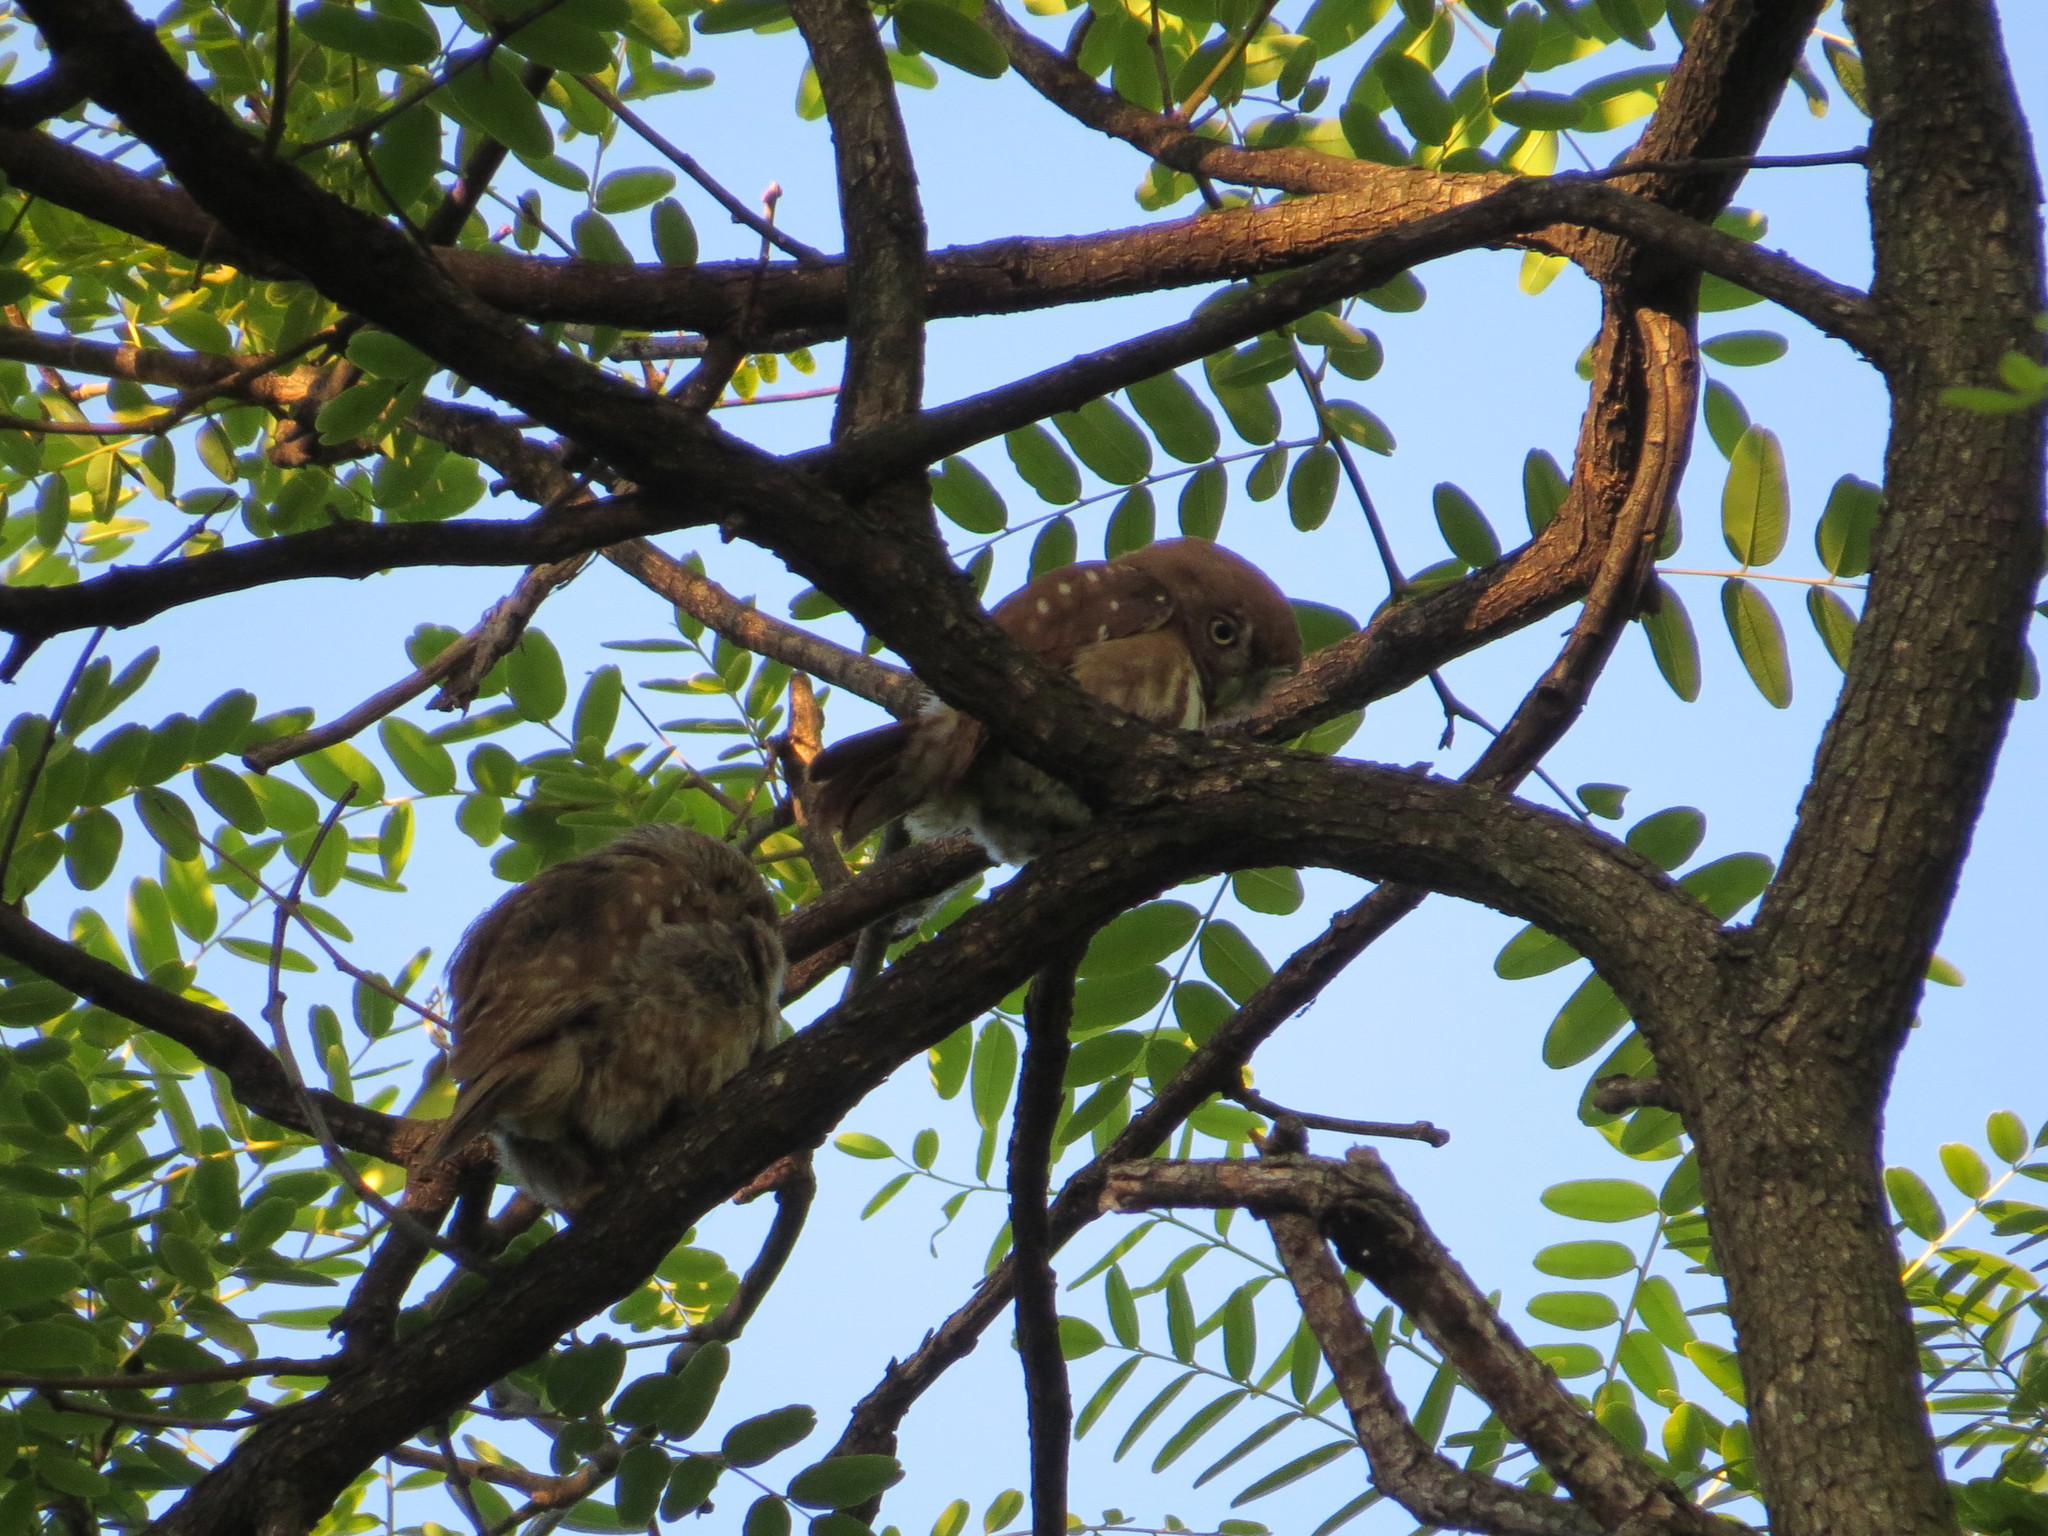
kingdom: Animalia
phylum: Chordata
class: Aves
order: Strigiformes
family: Strigidae
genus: Glaucidium
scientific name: Glaucidium brasilianum
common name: Ferruginous pygmy-owl
